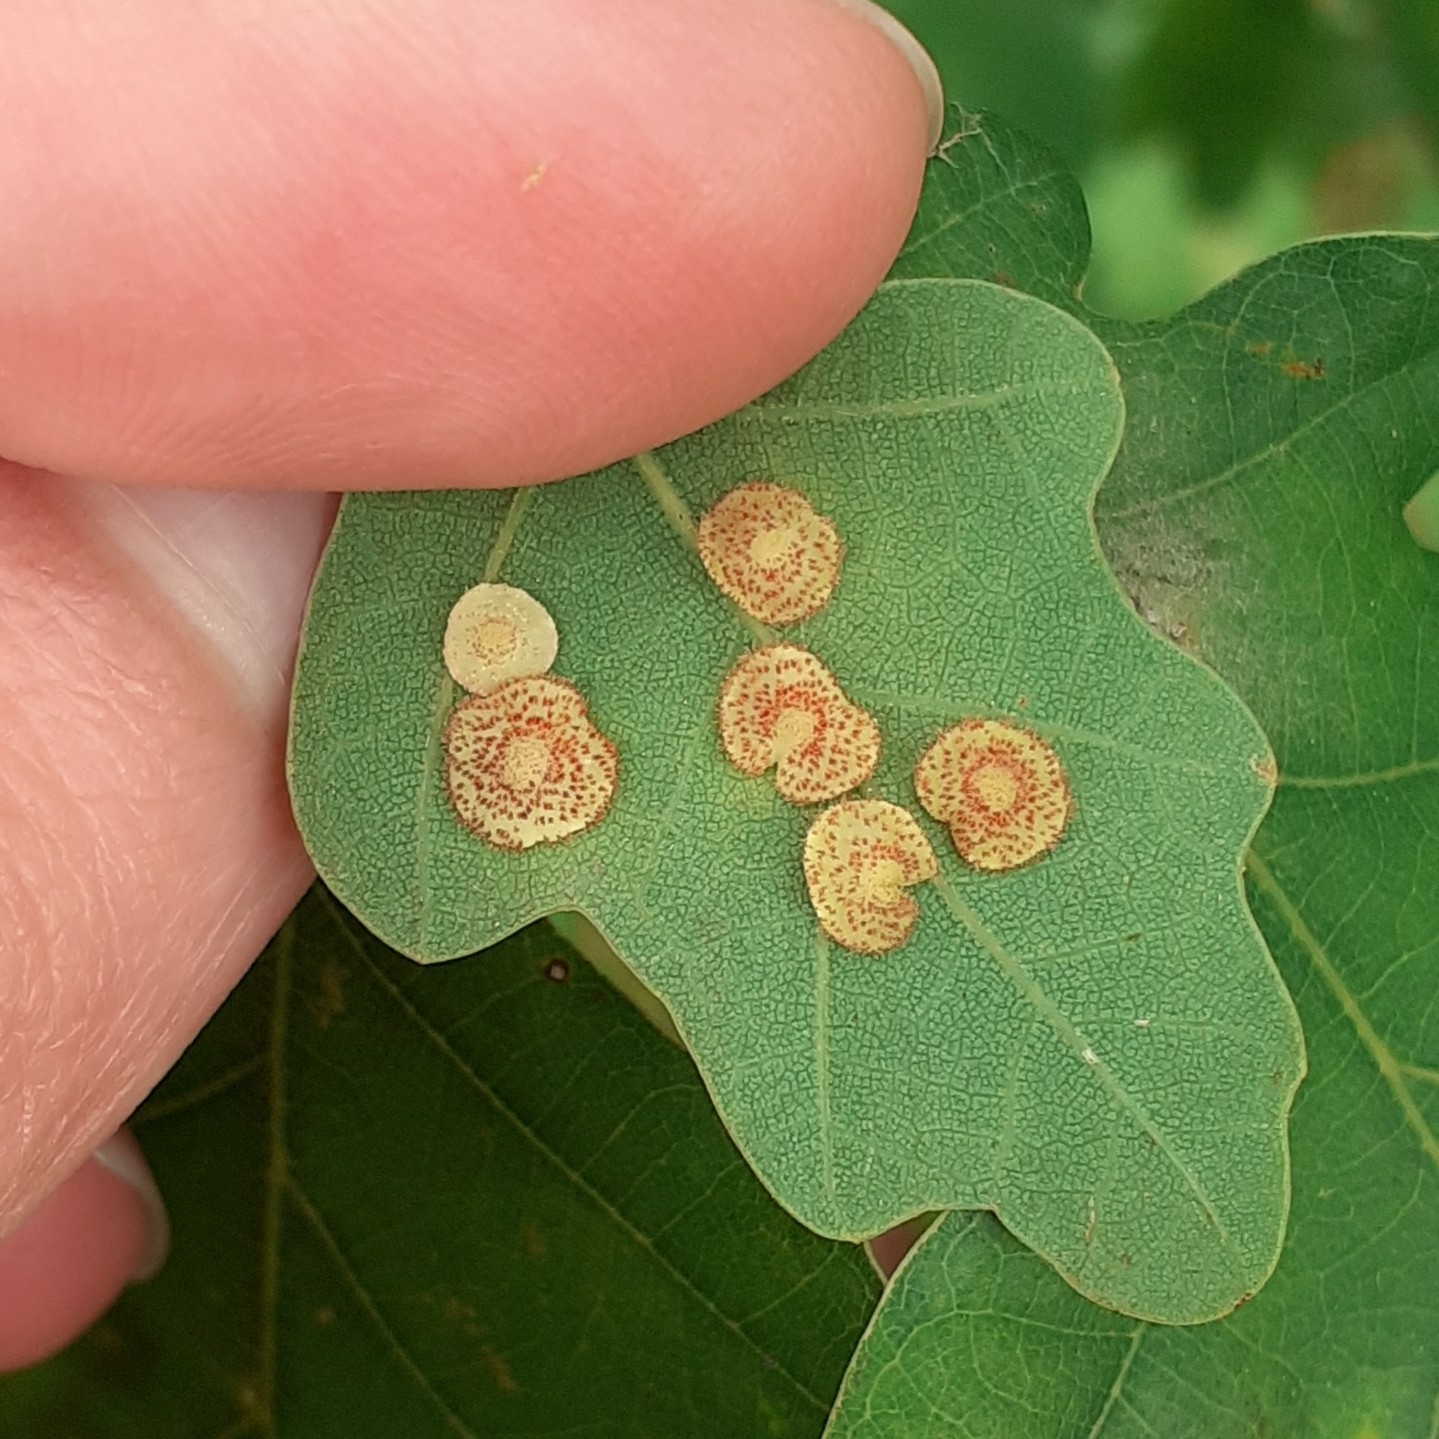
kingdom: Animalia
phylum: Arthropoda
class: Insecta
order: Hymenoptera
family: Cynipidae
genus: Neuroterus
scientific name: Neuroterus quercusbaccarum
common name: Common spangle gall
